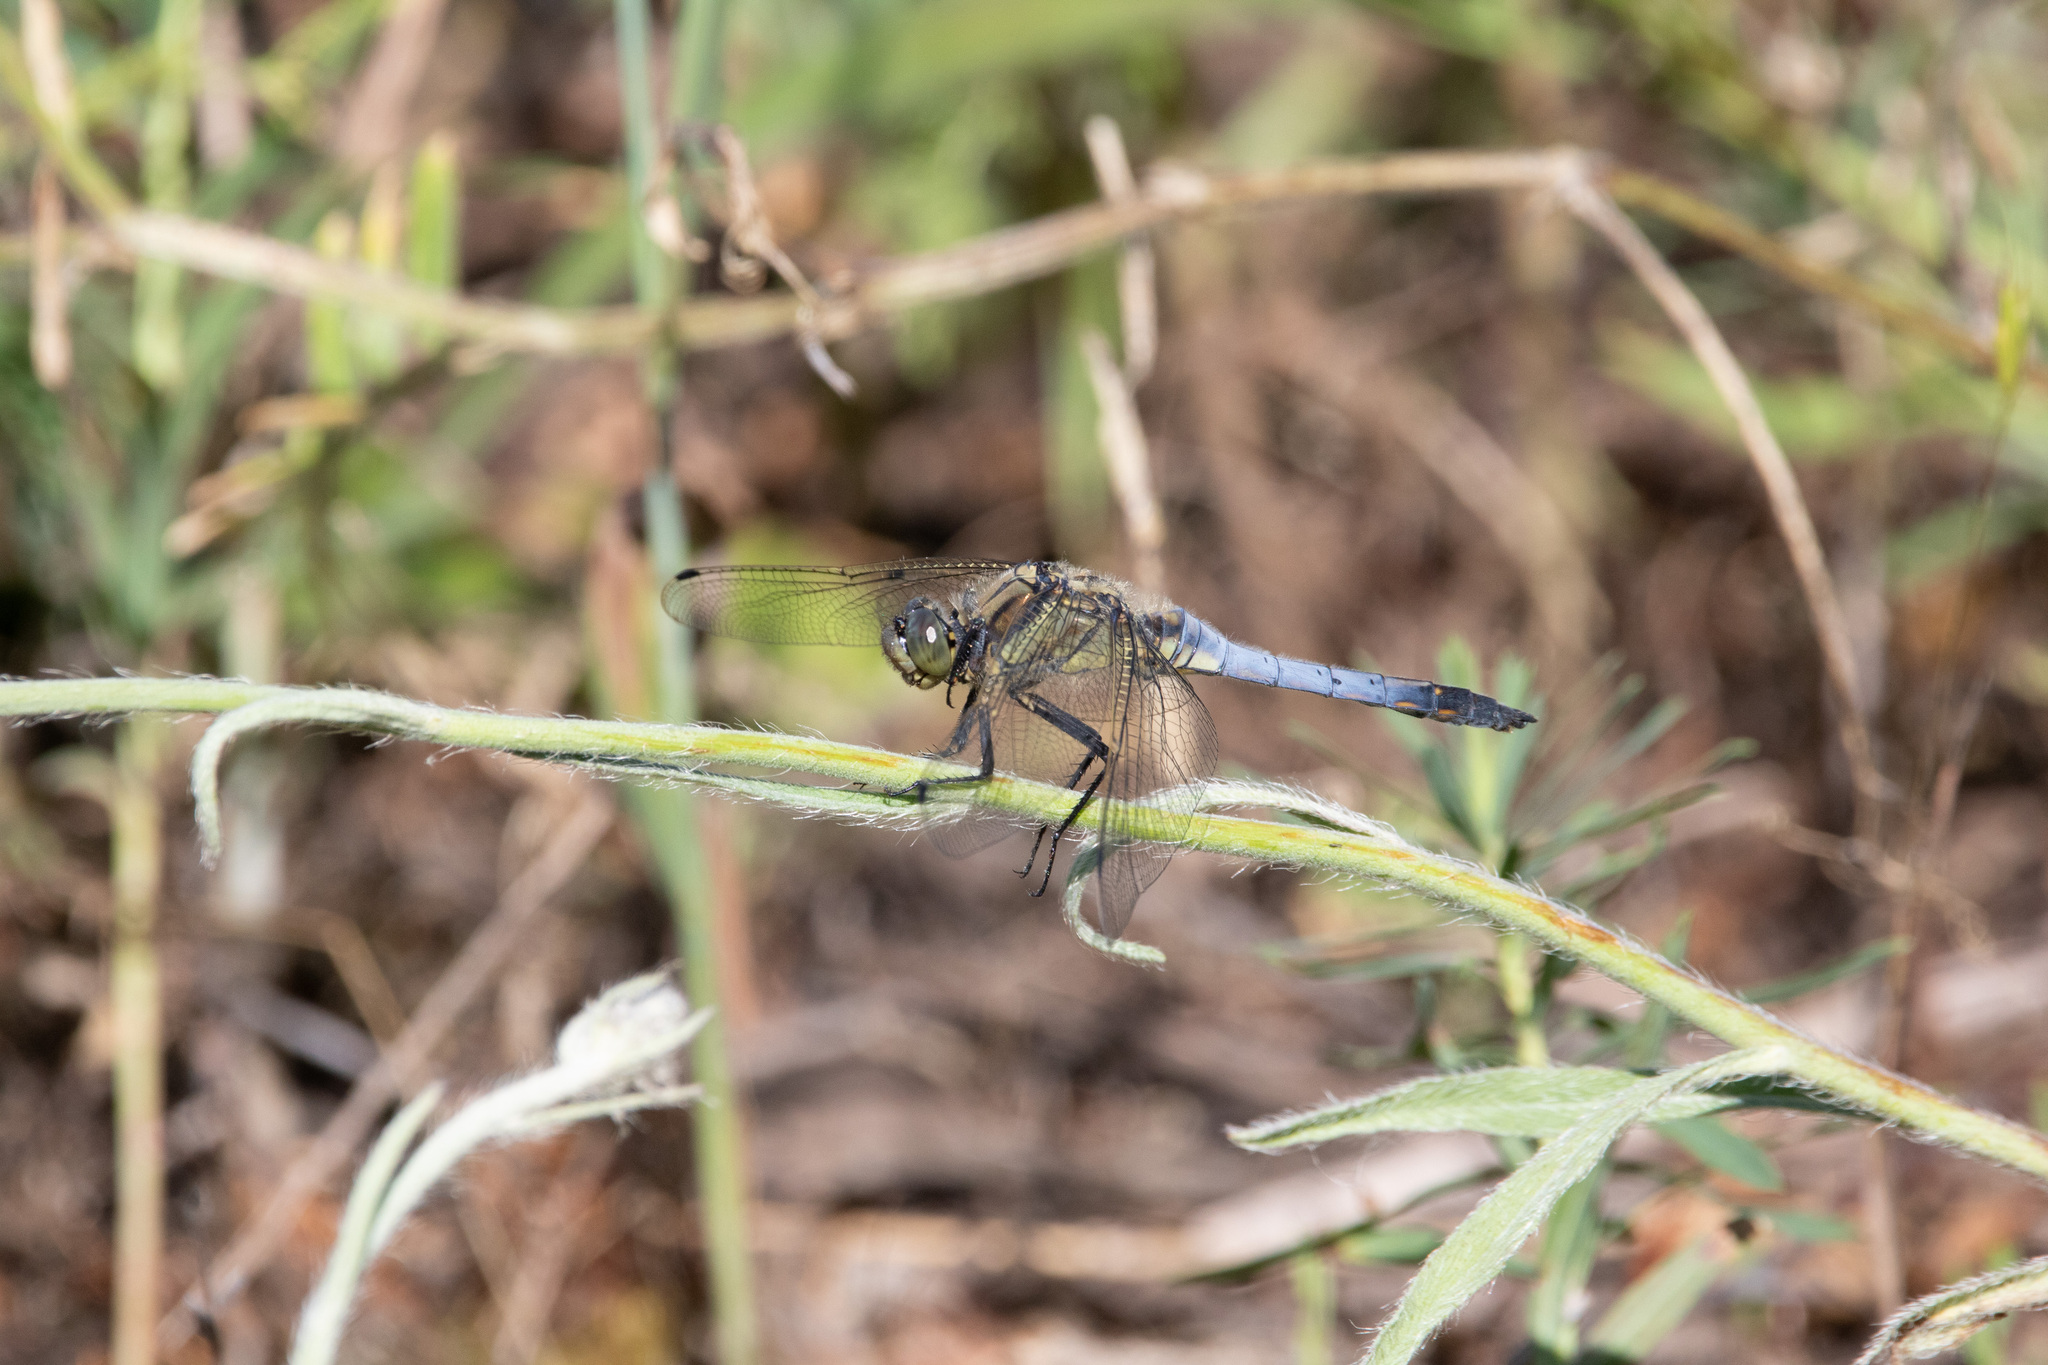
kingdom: Animalia
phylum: Arthropoda
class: Insecta
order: Odonata
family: Libellulidae
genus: Orthetrum
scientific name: Orthetrum cancellatum
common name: Black-tailed skimmer
